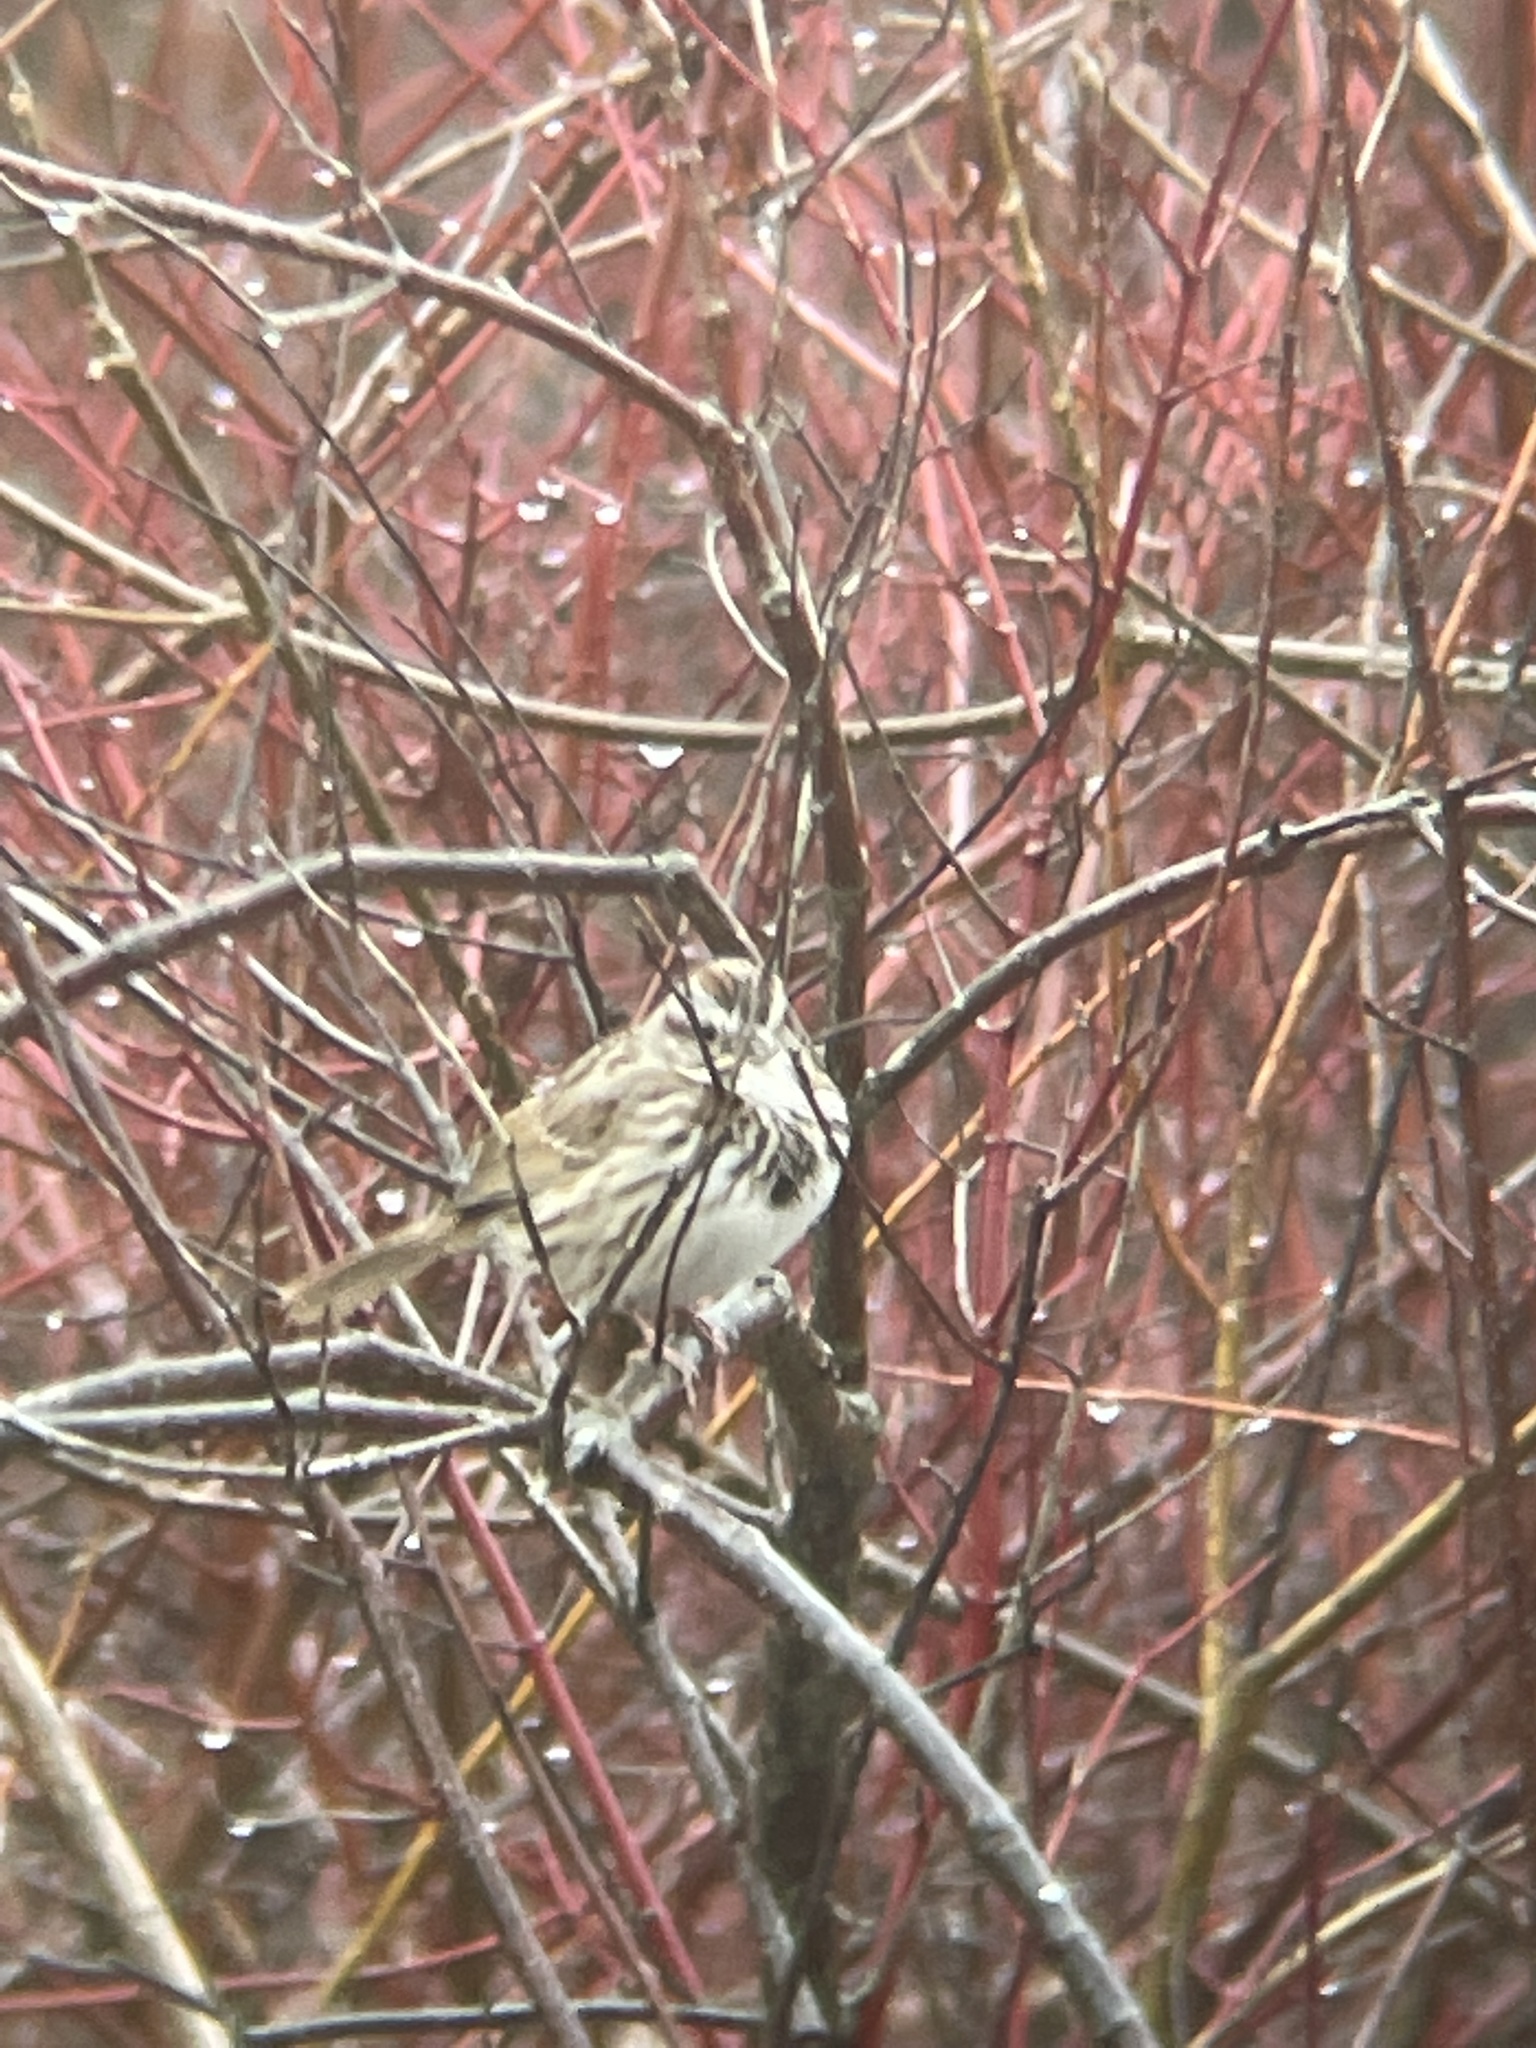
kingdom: Animalia
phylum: Chordata
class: Aves
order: Passeriformes
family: Passerellidae
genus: Melospiza
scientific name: Melospiza melodia
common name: Song sparrow
